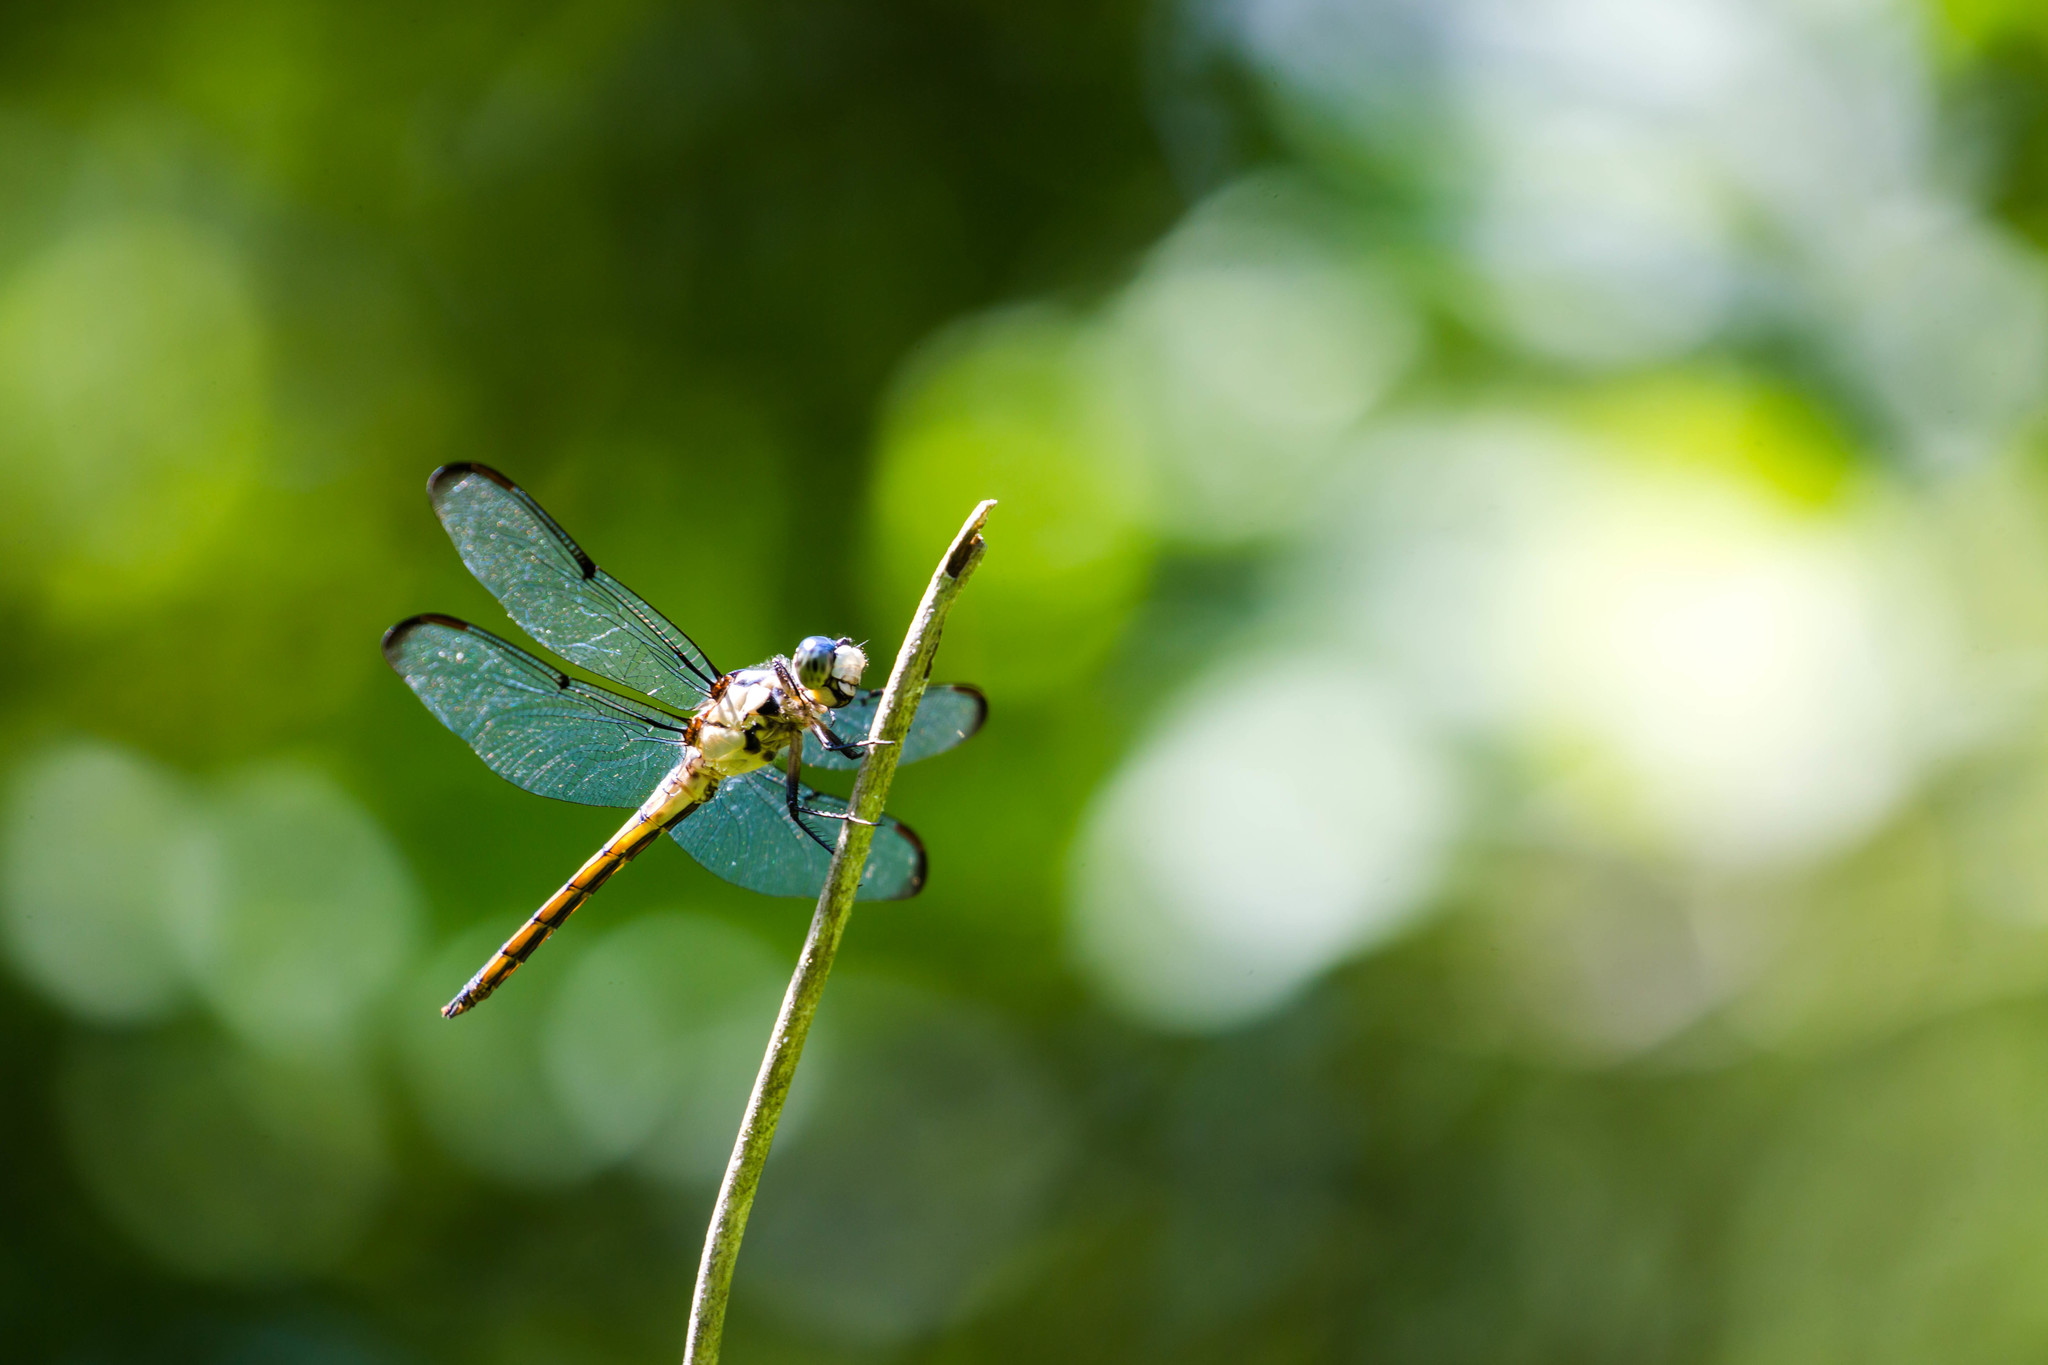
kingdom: Animalia
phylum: Arthropoda
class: Insecta
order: Odonata
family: Libellulidae
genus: Libellula
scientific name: Libellula vibrans
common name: Great blue skimmer
